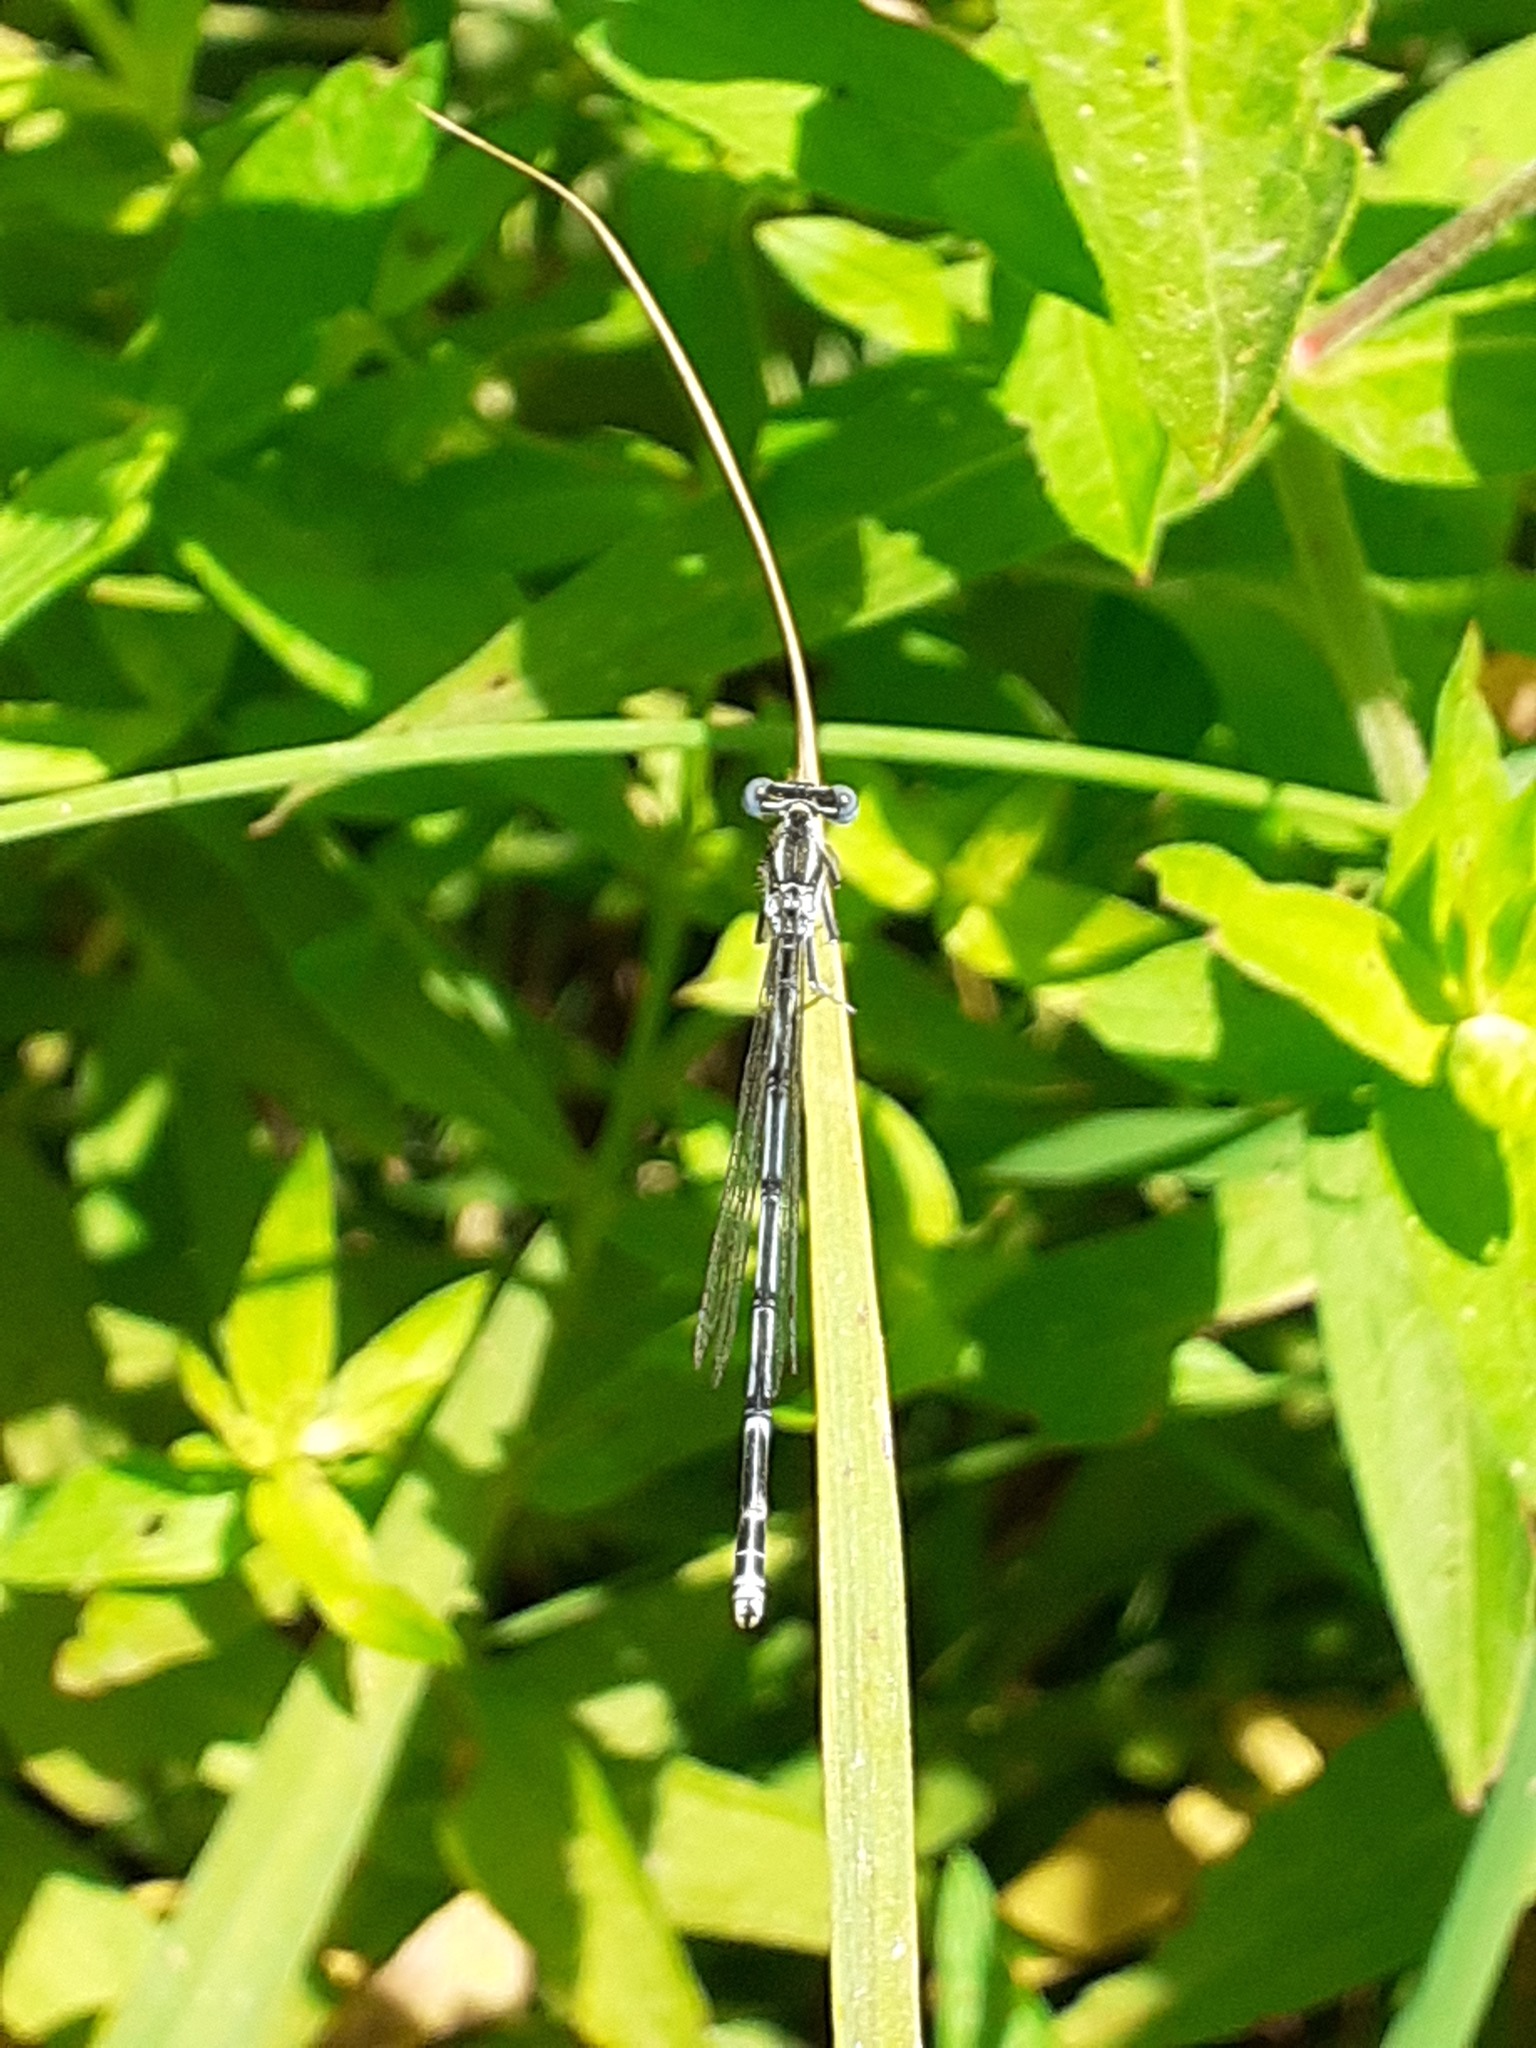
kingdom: Animalia
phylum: Arthropoda
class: Insecta
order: Odonata
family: Platycnemididae
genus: Platycnemis
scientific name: Platycnemis pennipes
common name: White-legged damselfly
